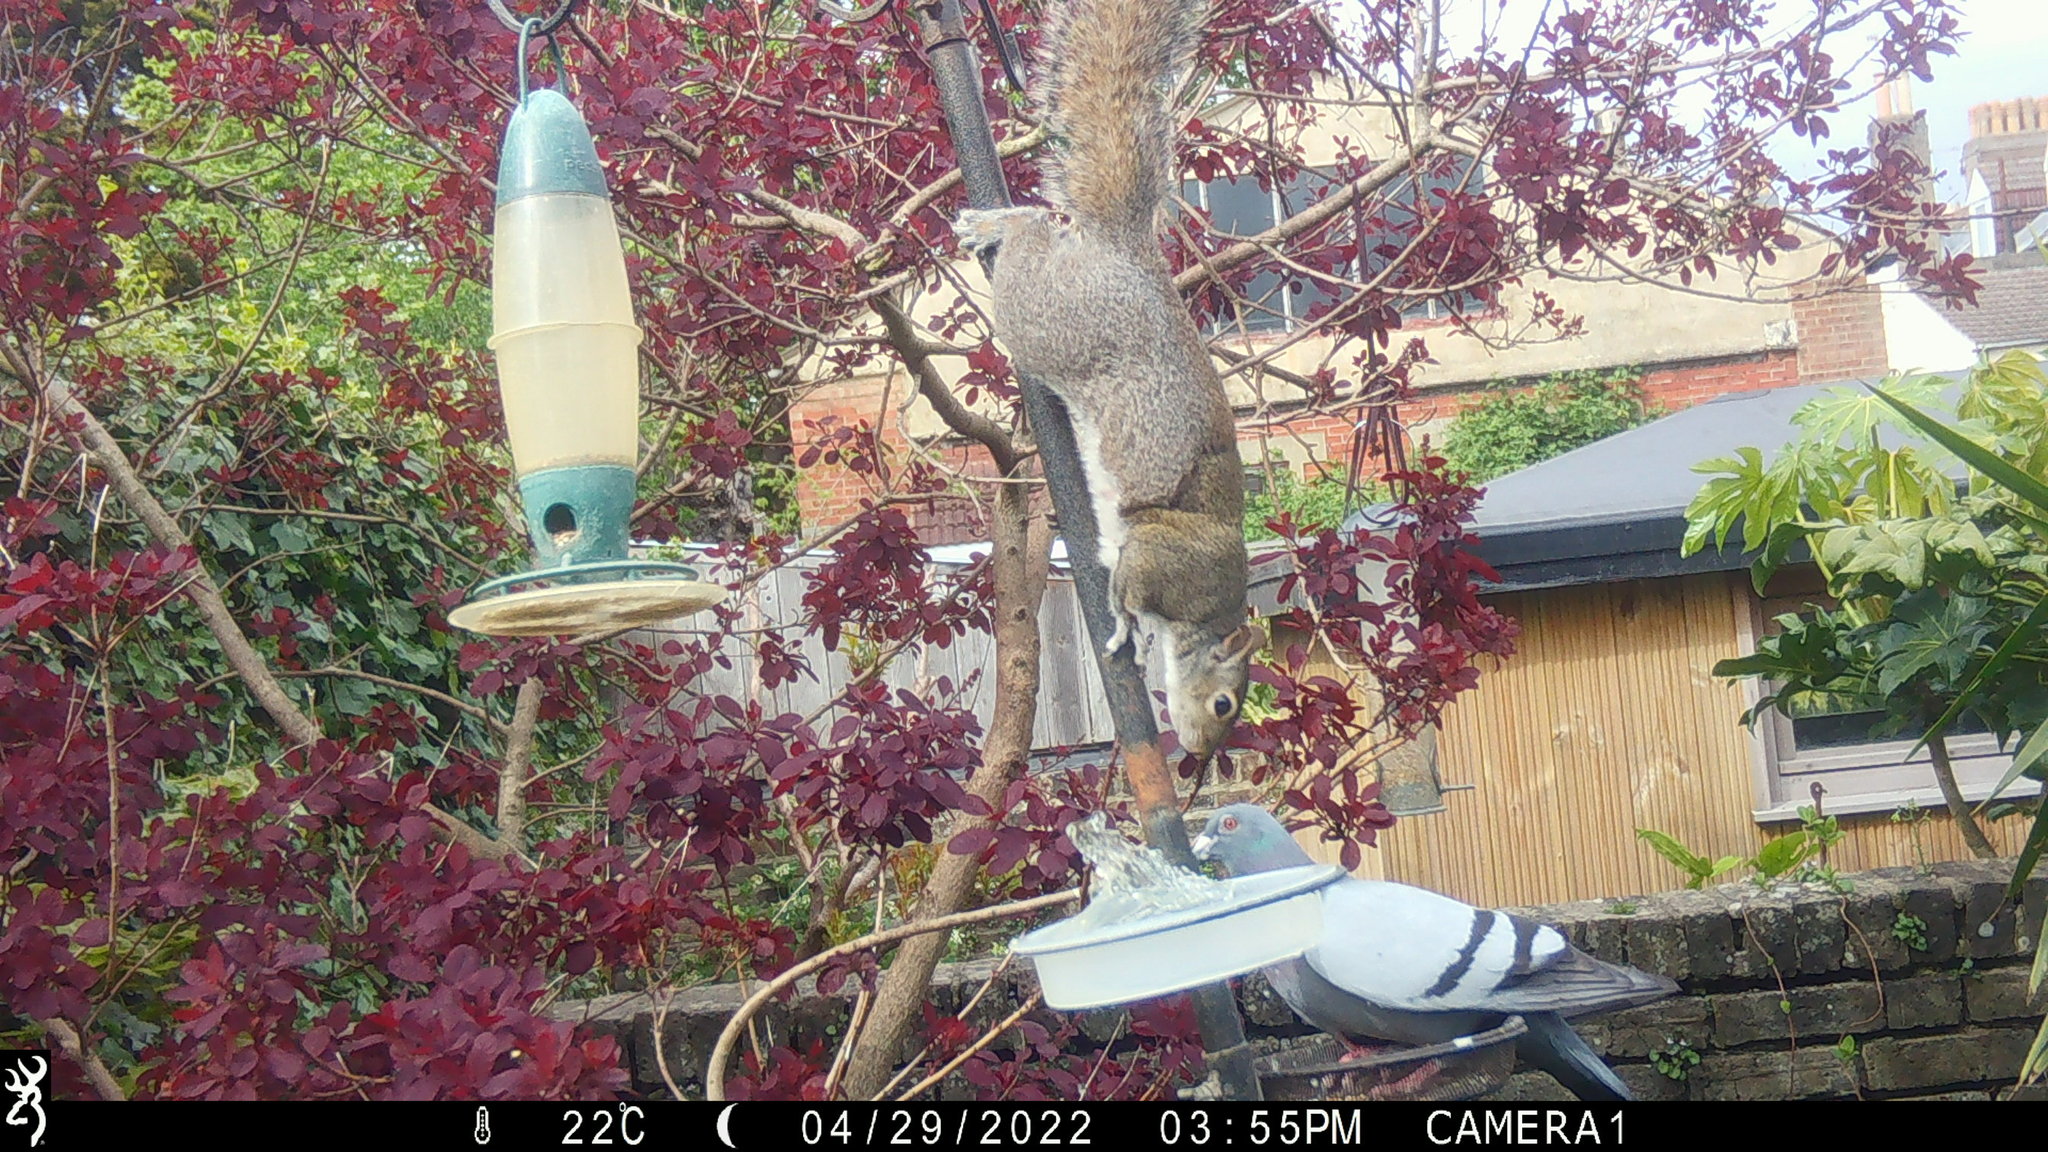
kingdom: Animalia
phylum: Chordata
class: Mammalia
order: Rodentia
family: Sciuridae
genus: Sciurus
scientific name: Sciurus carolinensis
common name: Eastern gray squirrel
